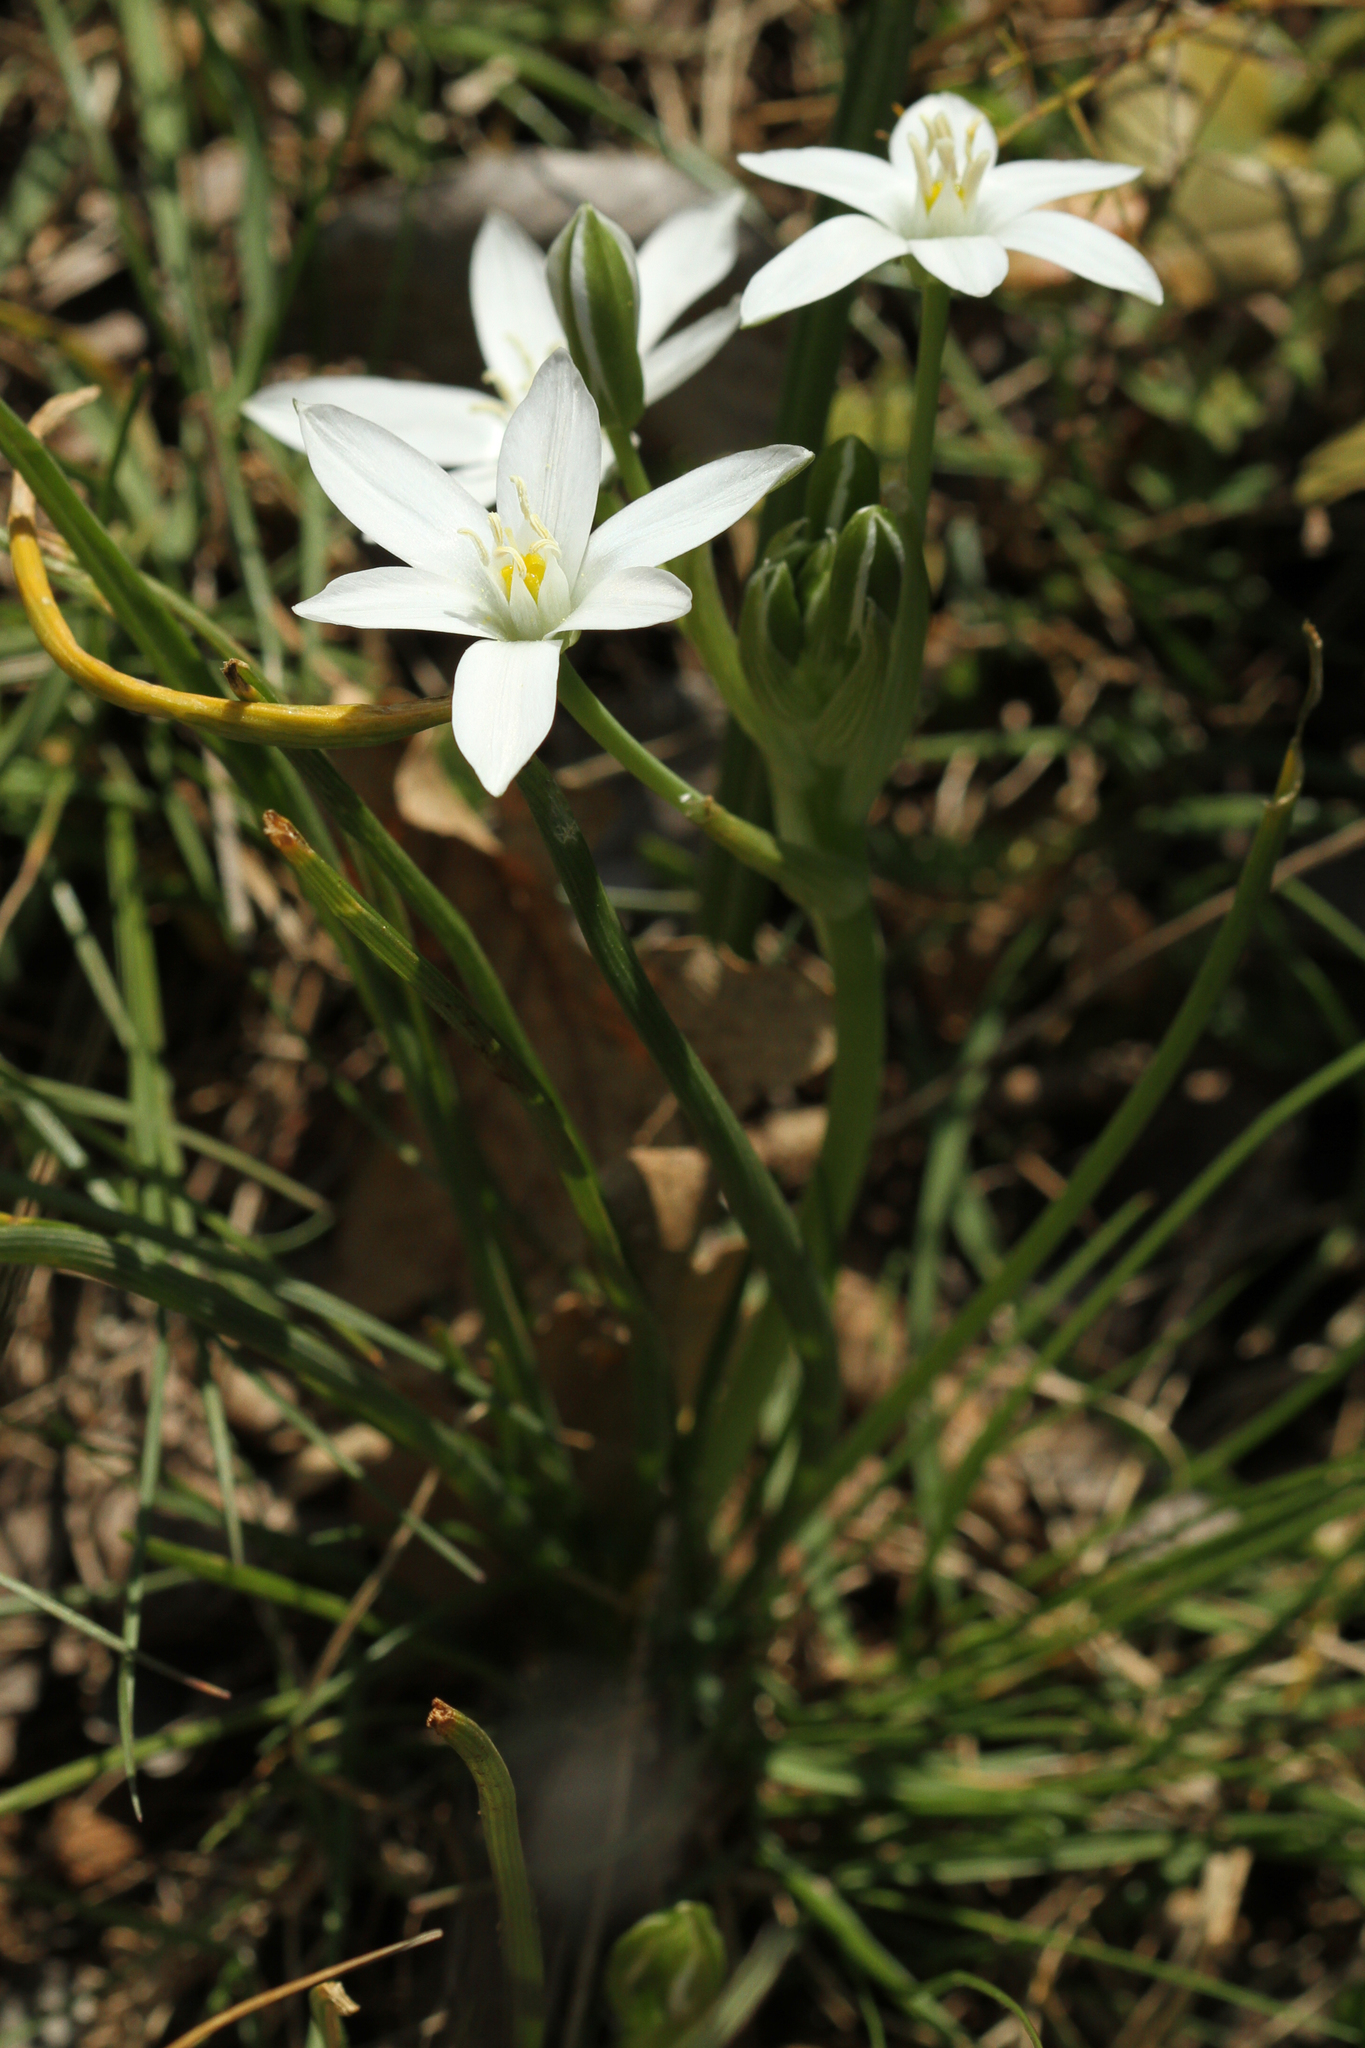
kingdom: Plantae
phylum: Tracheophyta
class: Liliopsida
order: Asparagales
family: Asparagaceae
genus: Ornithogalum
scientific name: Ornithogalum umbellatum
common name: Garden star-of-bethlehem
